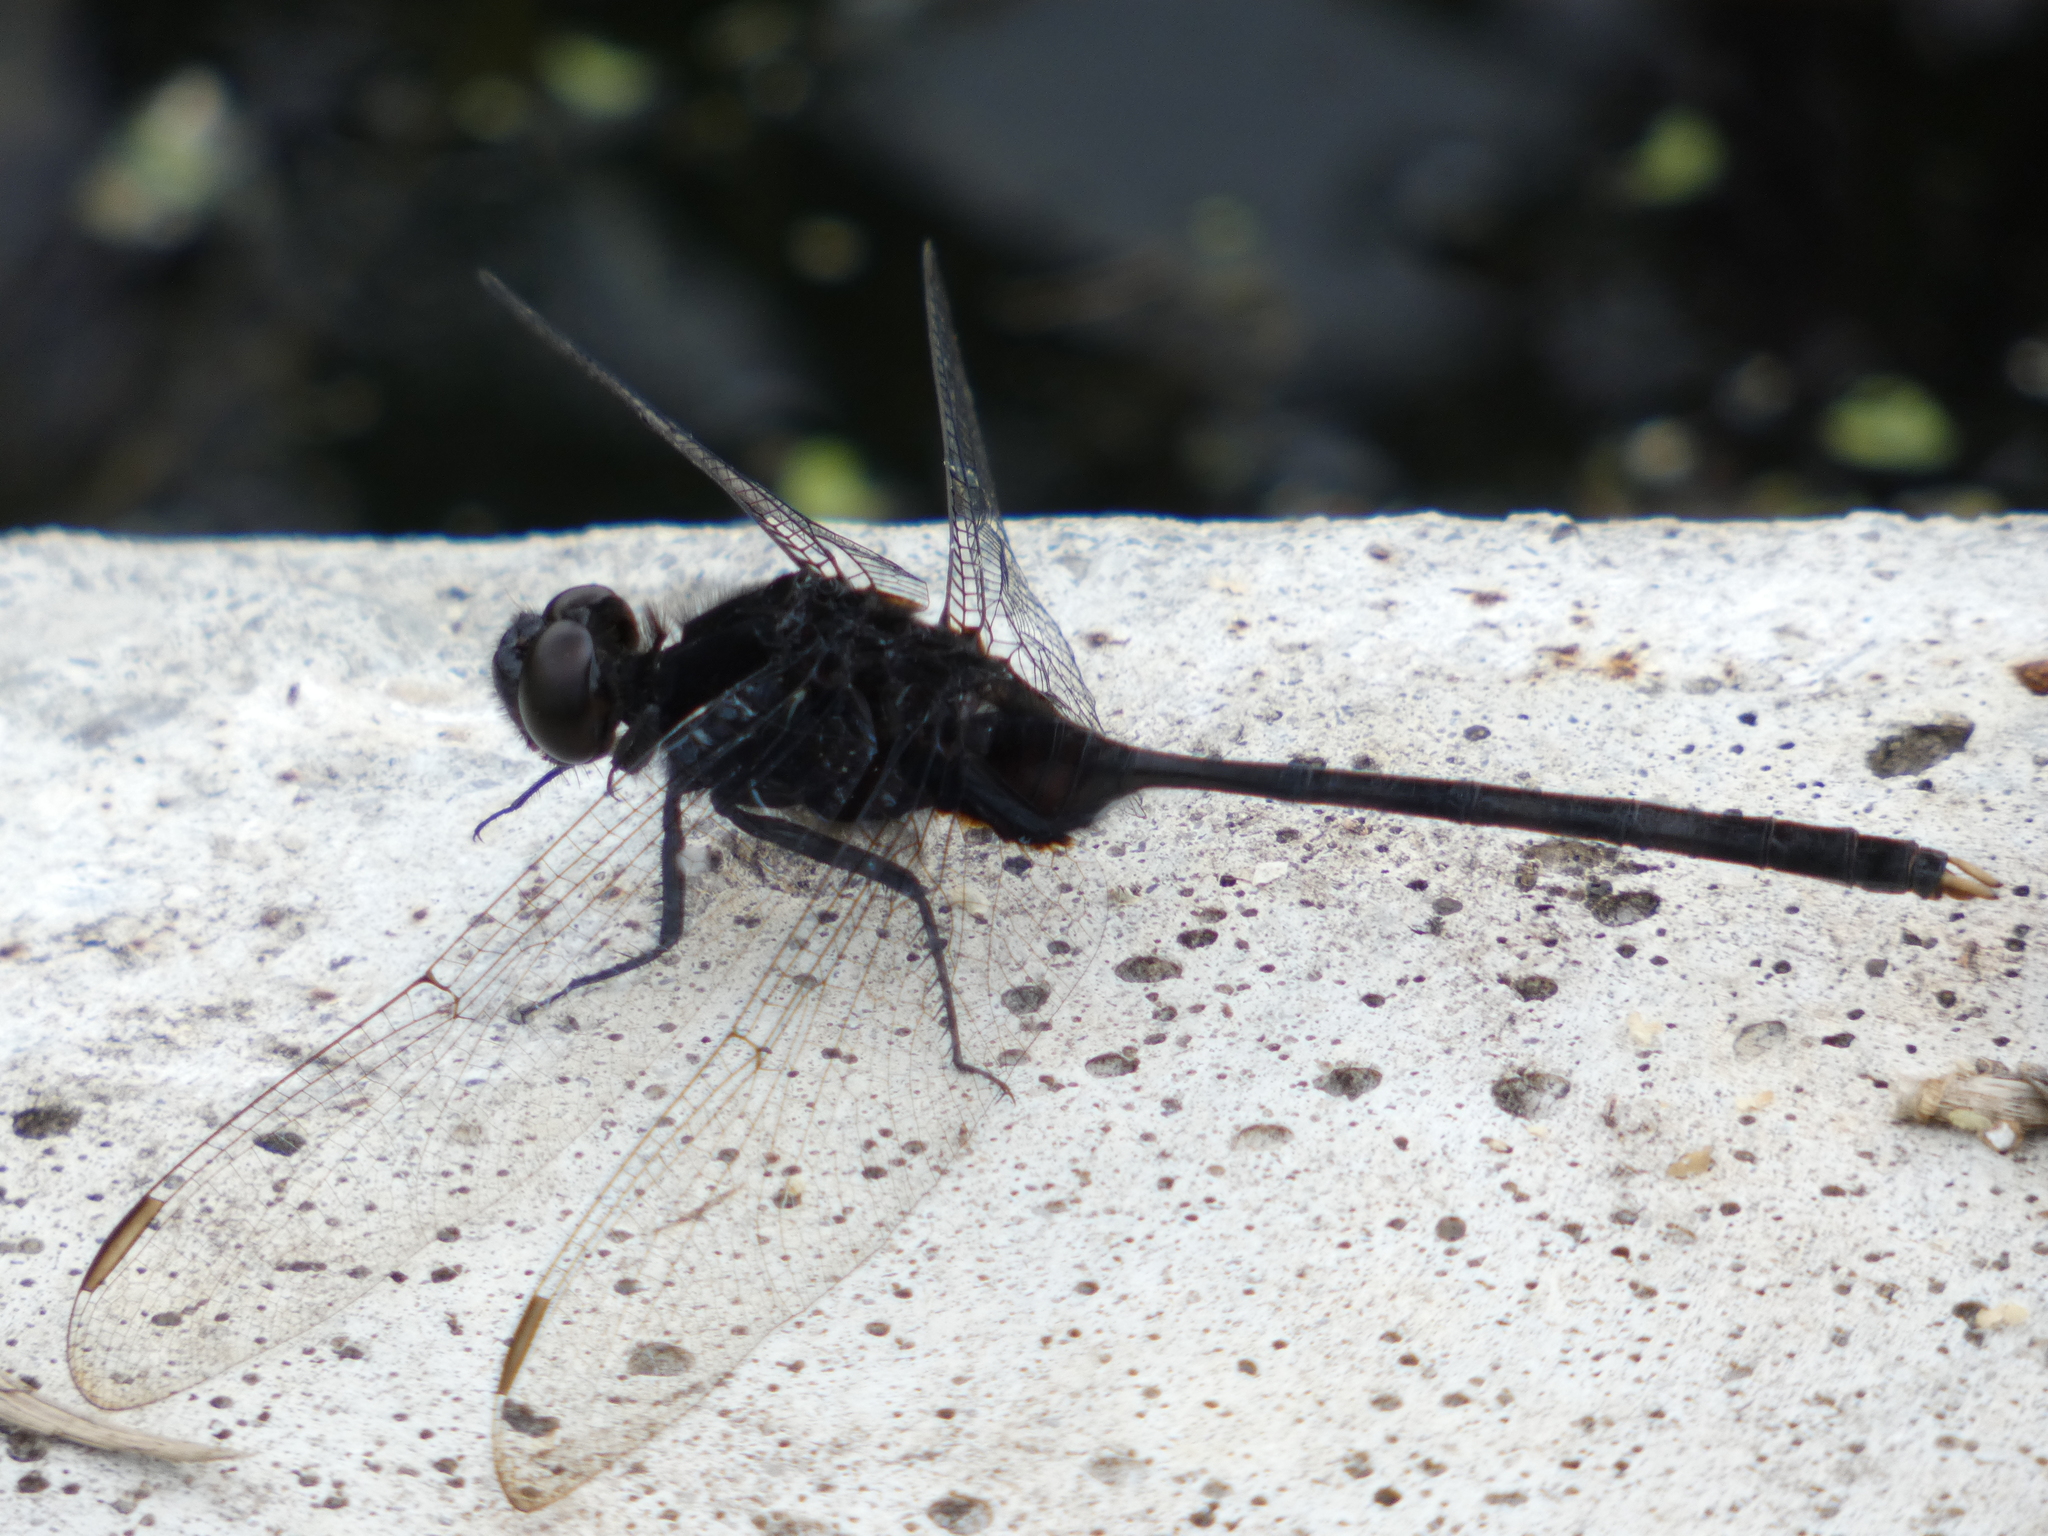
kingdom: Animalia
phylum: Arthropoda
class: Insecta
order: Odonata
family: Libellulidae
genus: Erythemis
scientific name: Erythemis plebeja
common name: Pin-tailed pondhawk
